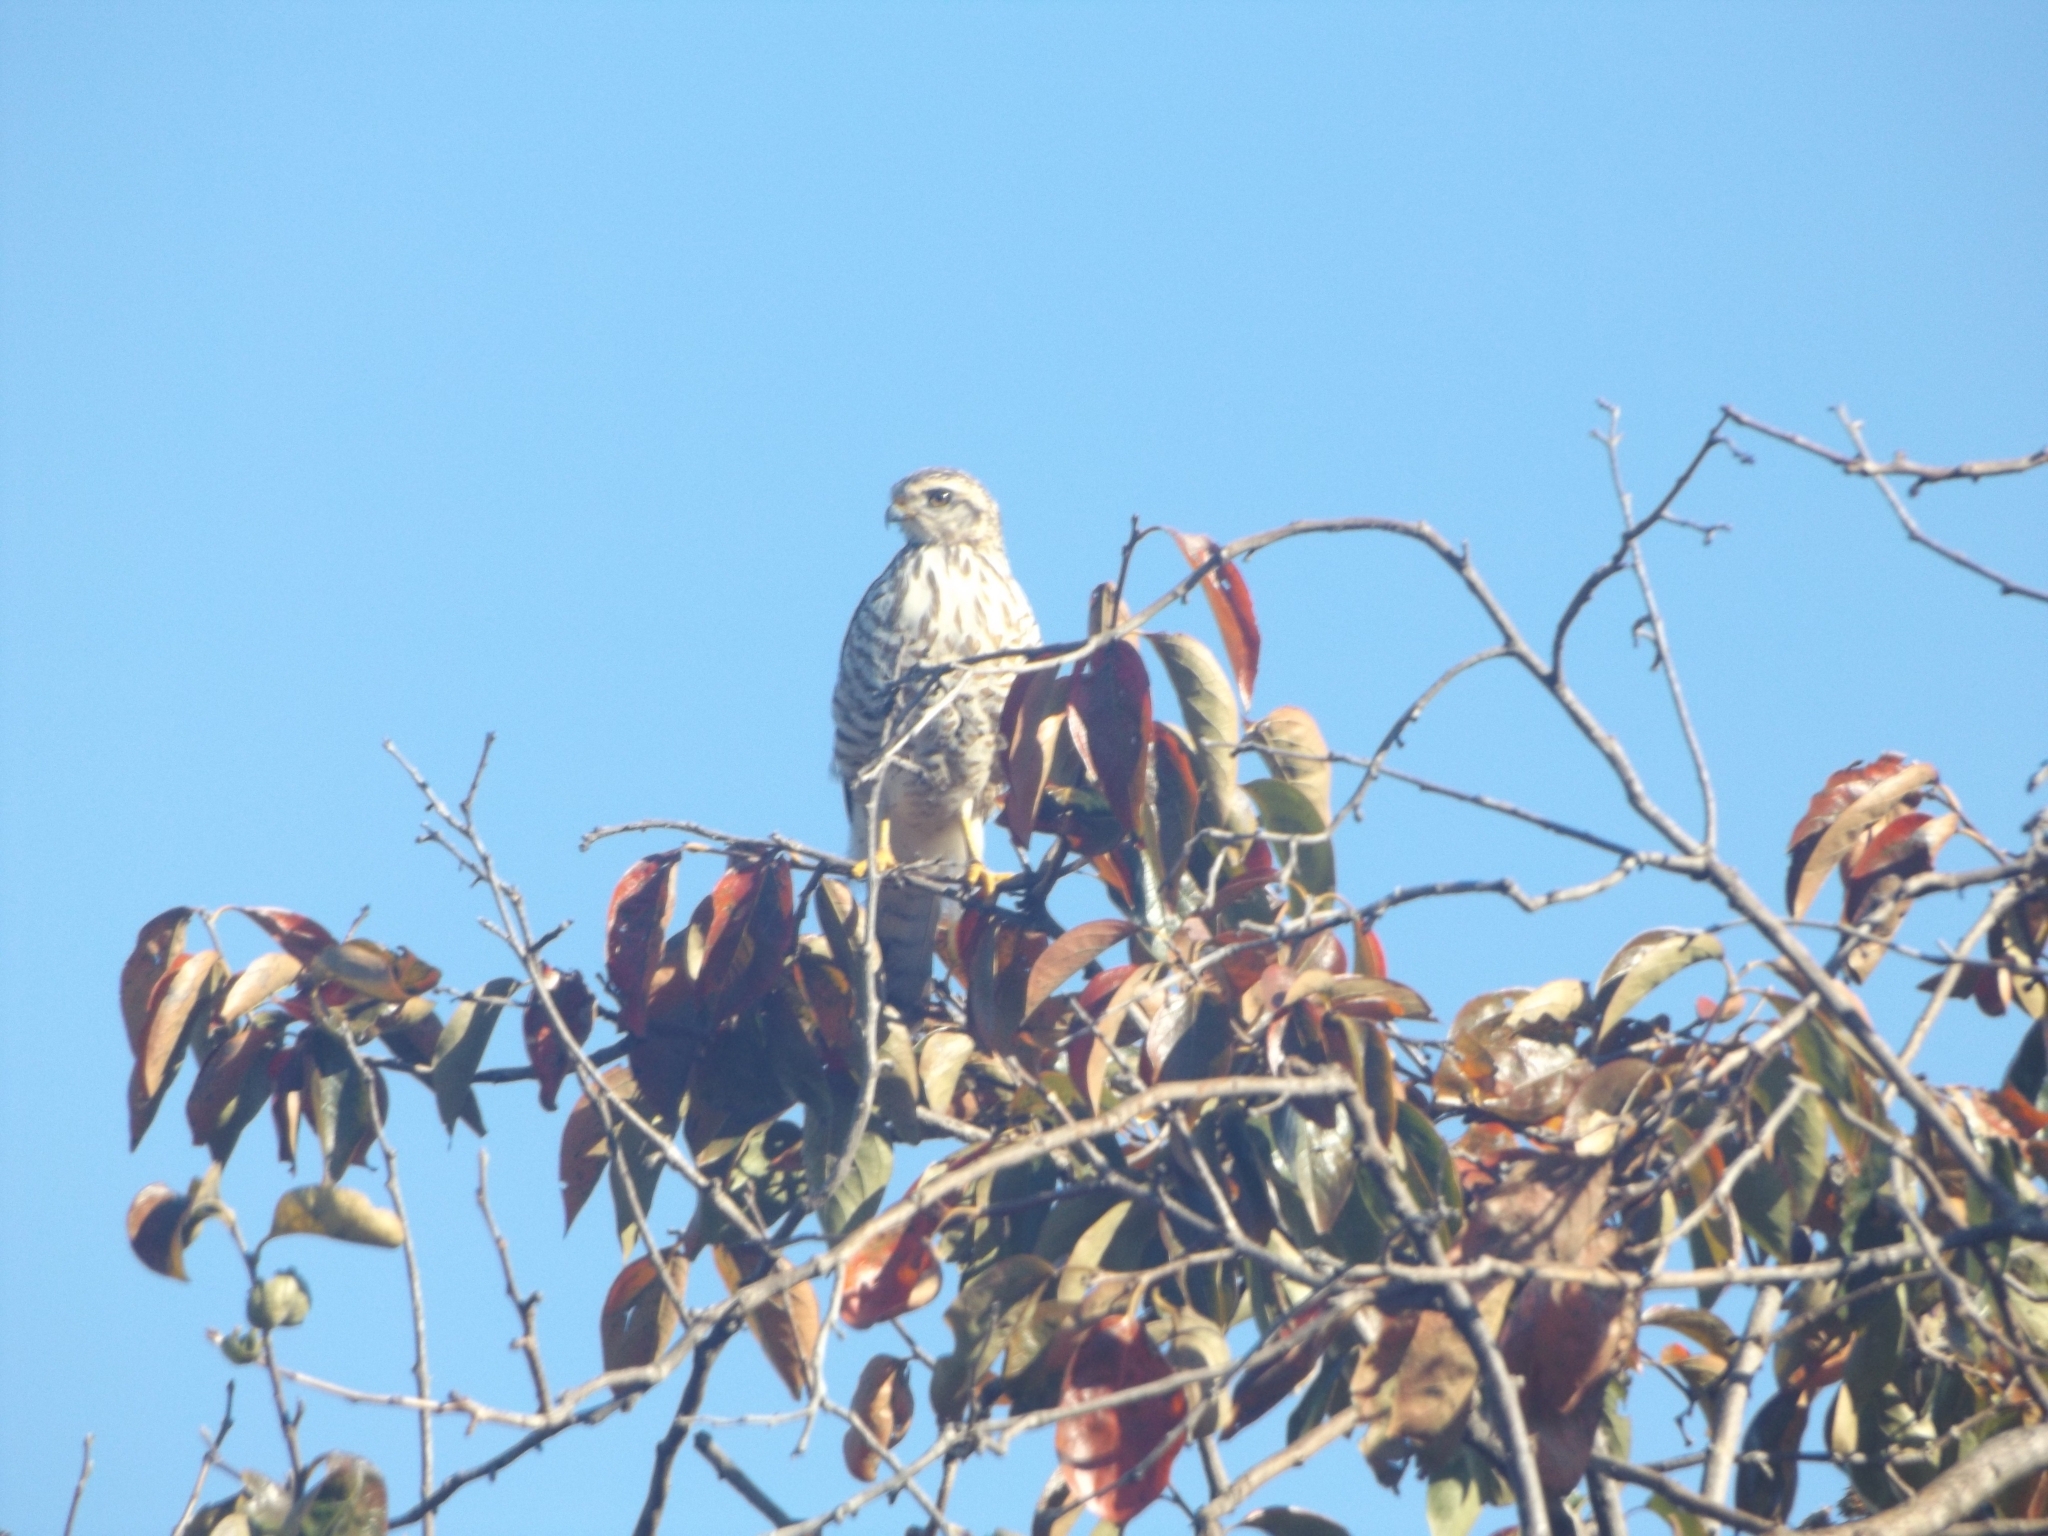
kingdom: Animalia
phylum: Chordata
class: Aves
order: Accipitriformes
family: Accipitridae
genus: Rupornis
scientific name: Rupornis magnirostris
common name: Roadside hawk
